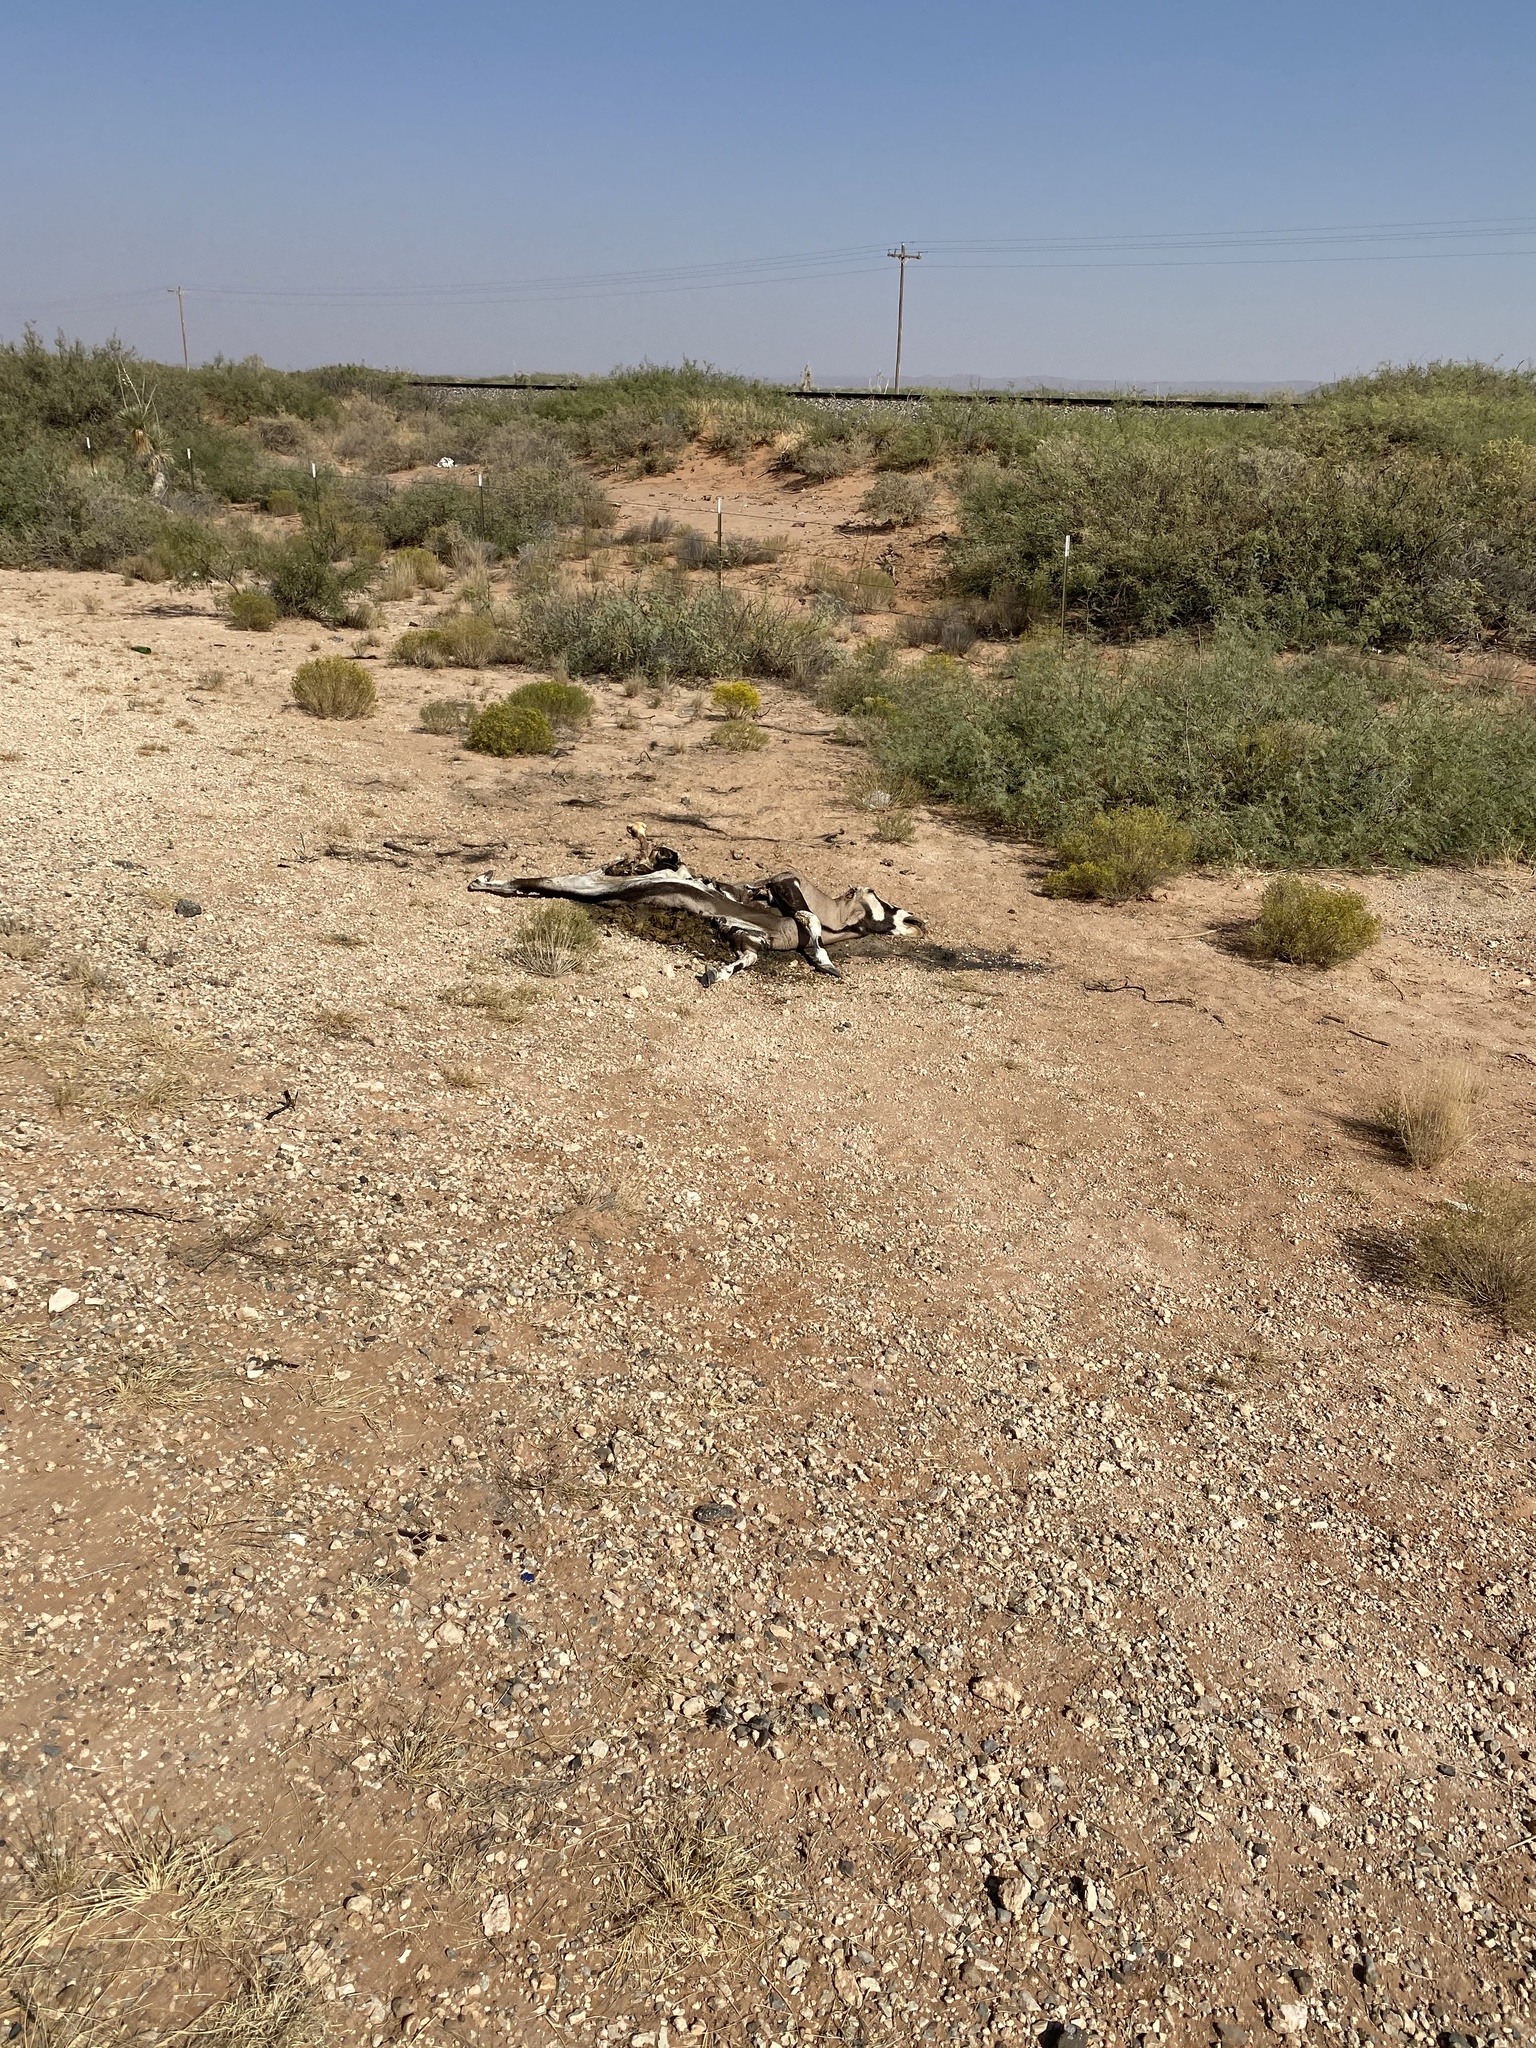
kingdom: Animalia
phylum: Chordata
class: Mammalia
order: Artiodactyla
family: Bovidae
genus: Oryx
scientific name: Oryx gazella
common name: Gemsbok
